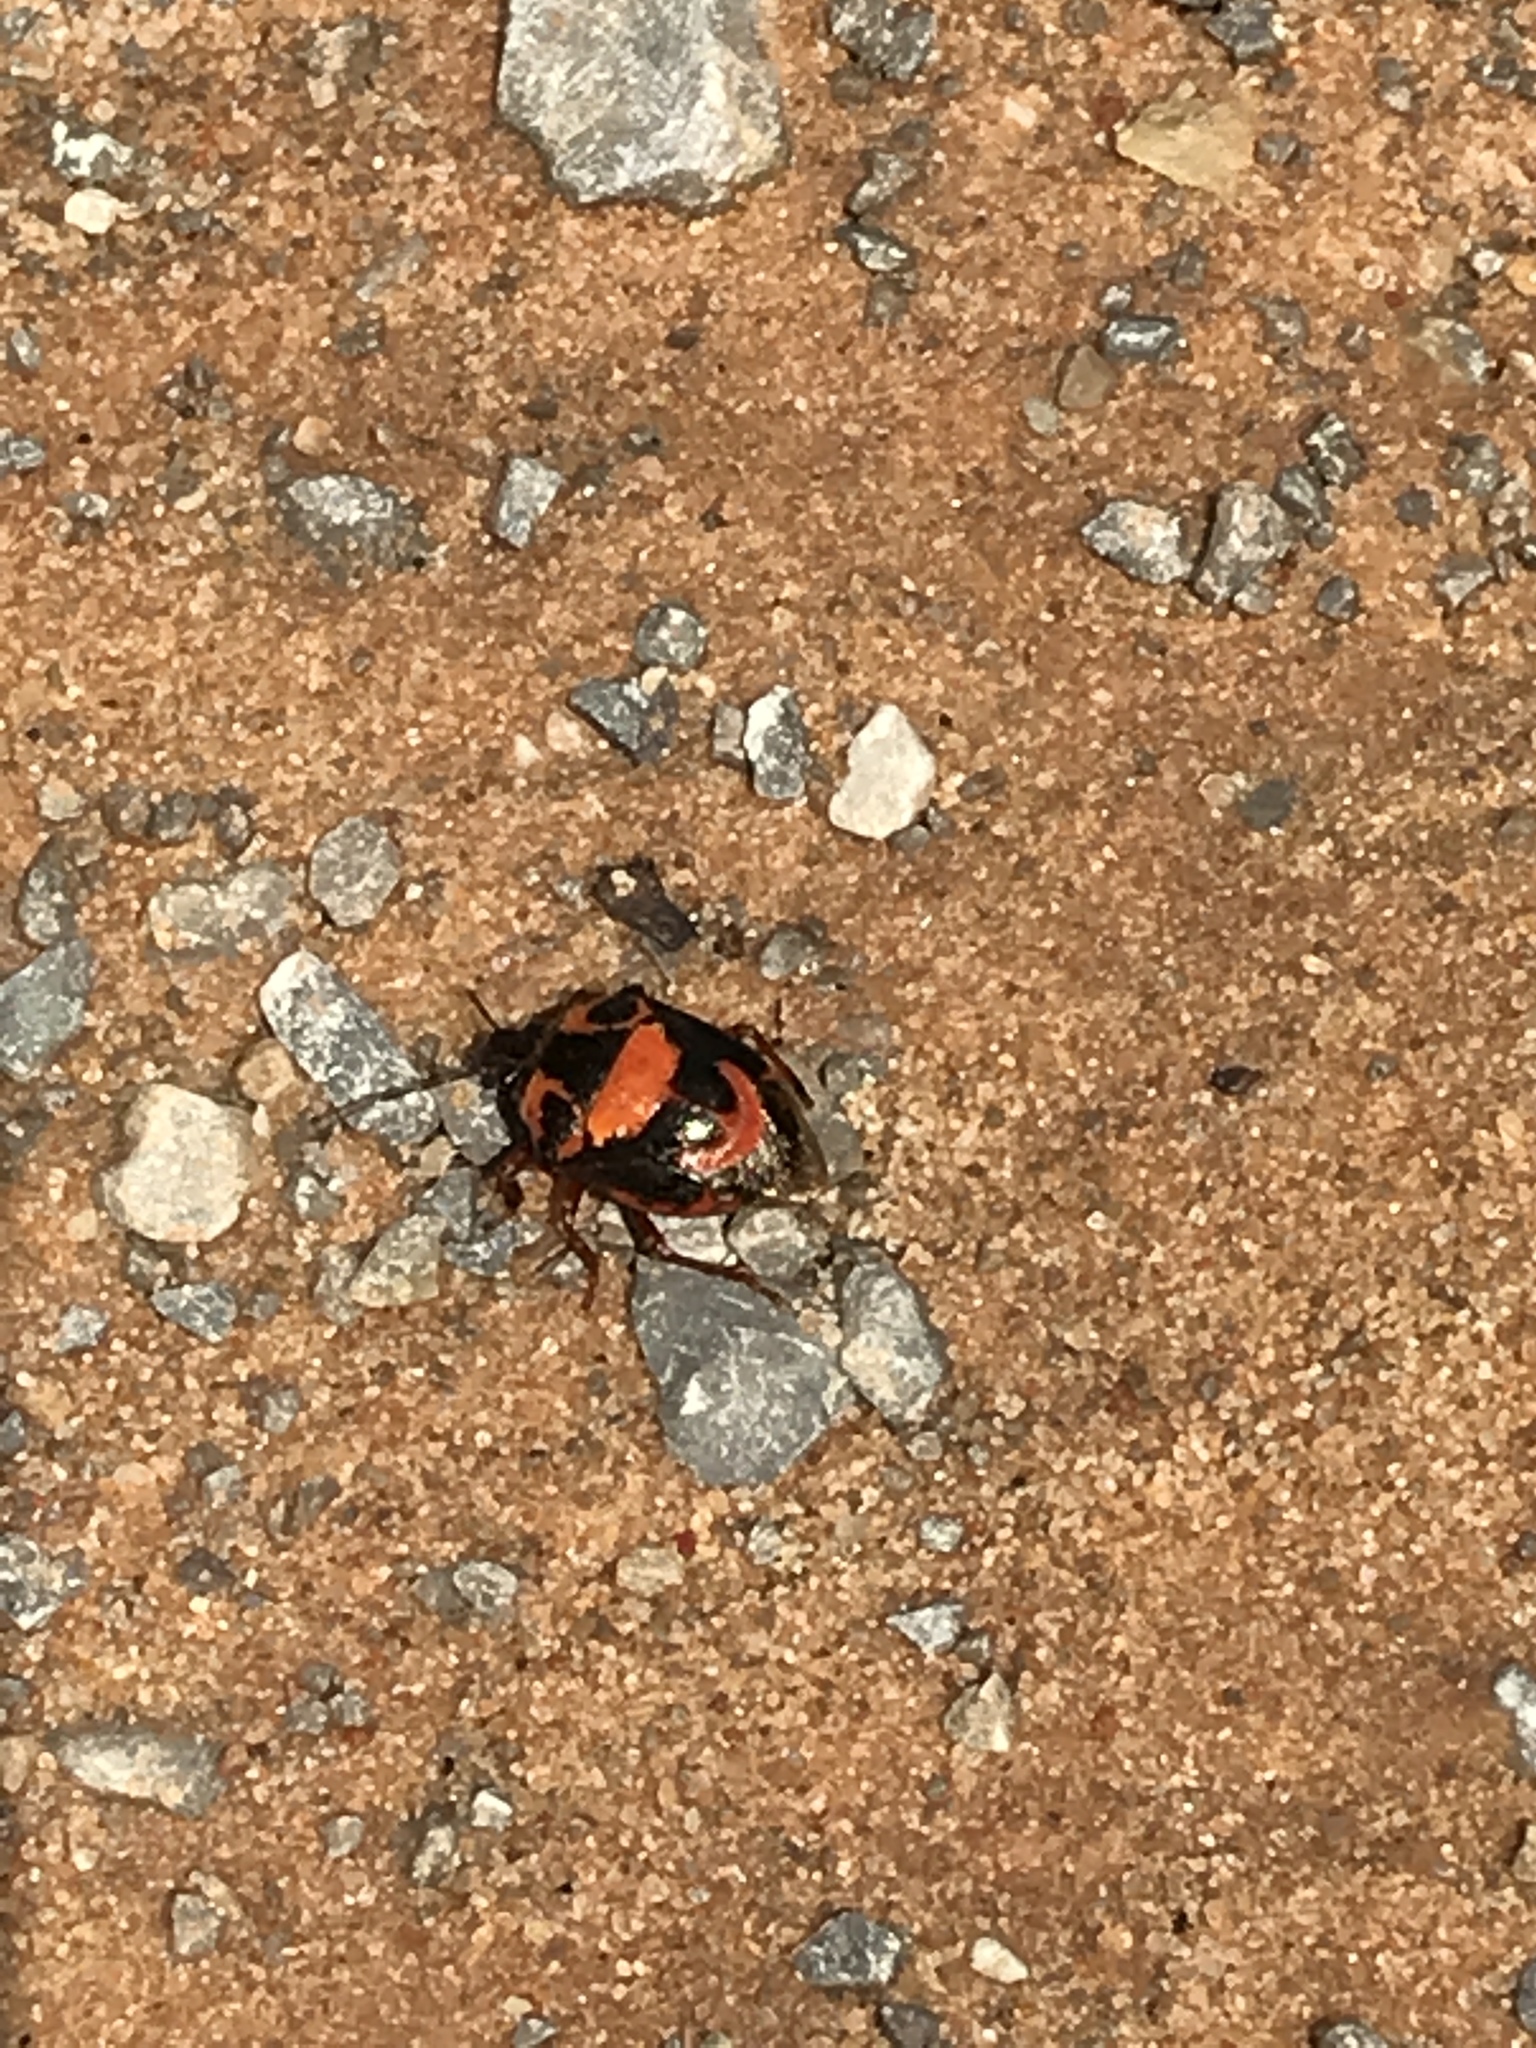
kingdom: Animalia
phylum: Arthropoda
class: Insecta
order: Hemiptera
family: Pentatomidae
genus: Stiretrus
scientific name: Stiretrus anchorago
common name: Anchor stink bug
